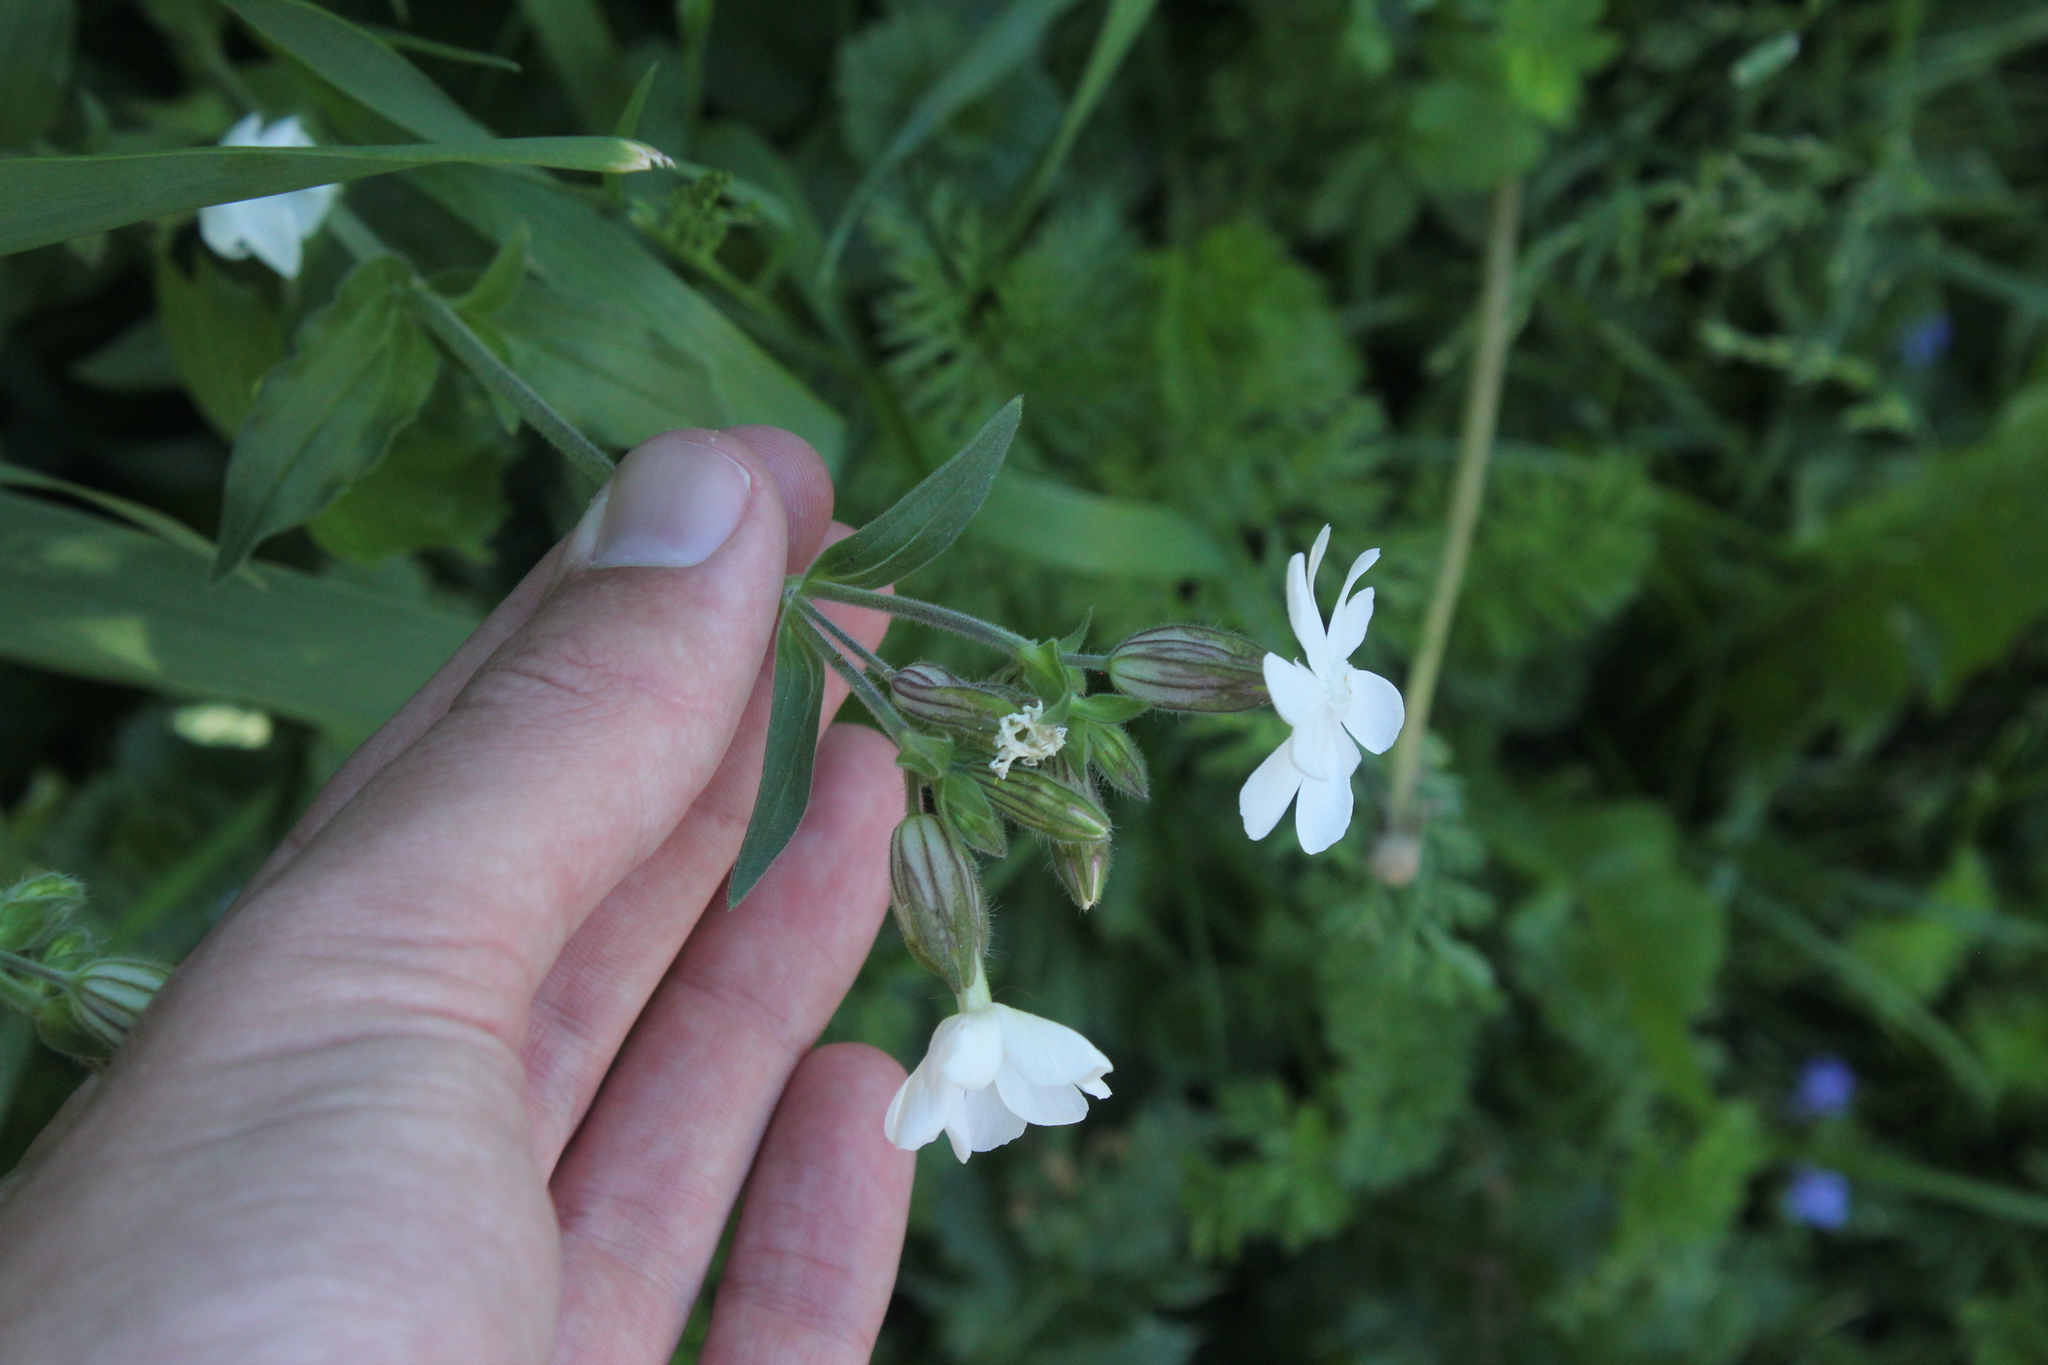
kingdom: Plantae
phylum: Tracheophyta
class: Magnoliopsida
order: Caryophyllales
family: Caryophyllaceae
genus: Silene
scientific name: Silene latifolia
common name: White campion
